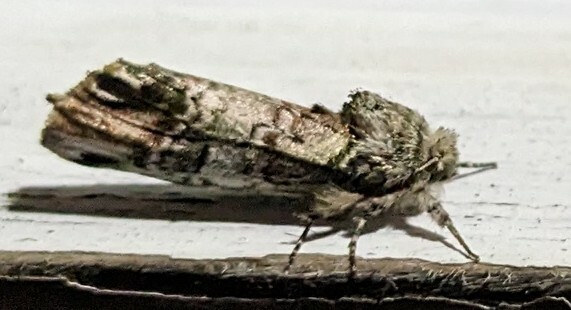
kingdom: Animalia
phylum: Arthropoda
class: Insecta
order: Lepidoptera
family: Notodontidae
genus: Schizura
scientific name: Schizura
